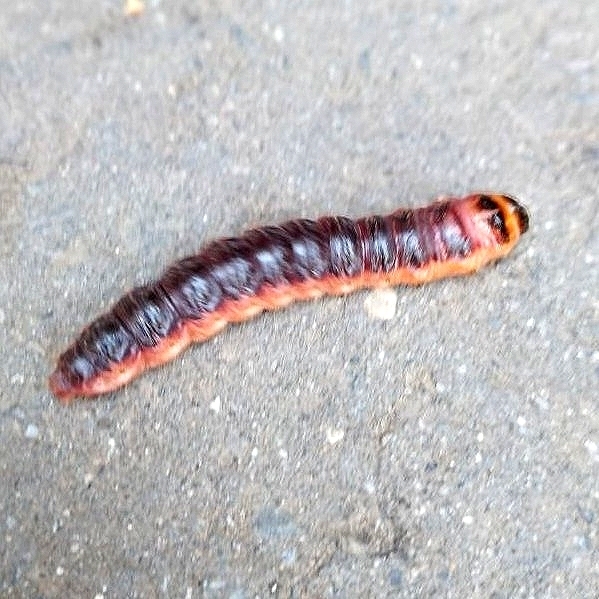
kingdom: Animalia
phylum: Arthropoda
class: Insecta
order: Lepidoptera
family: Cossidae
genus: Cossus
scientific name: Cossus cossus
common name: Goat moth
